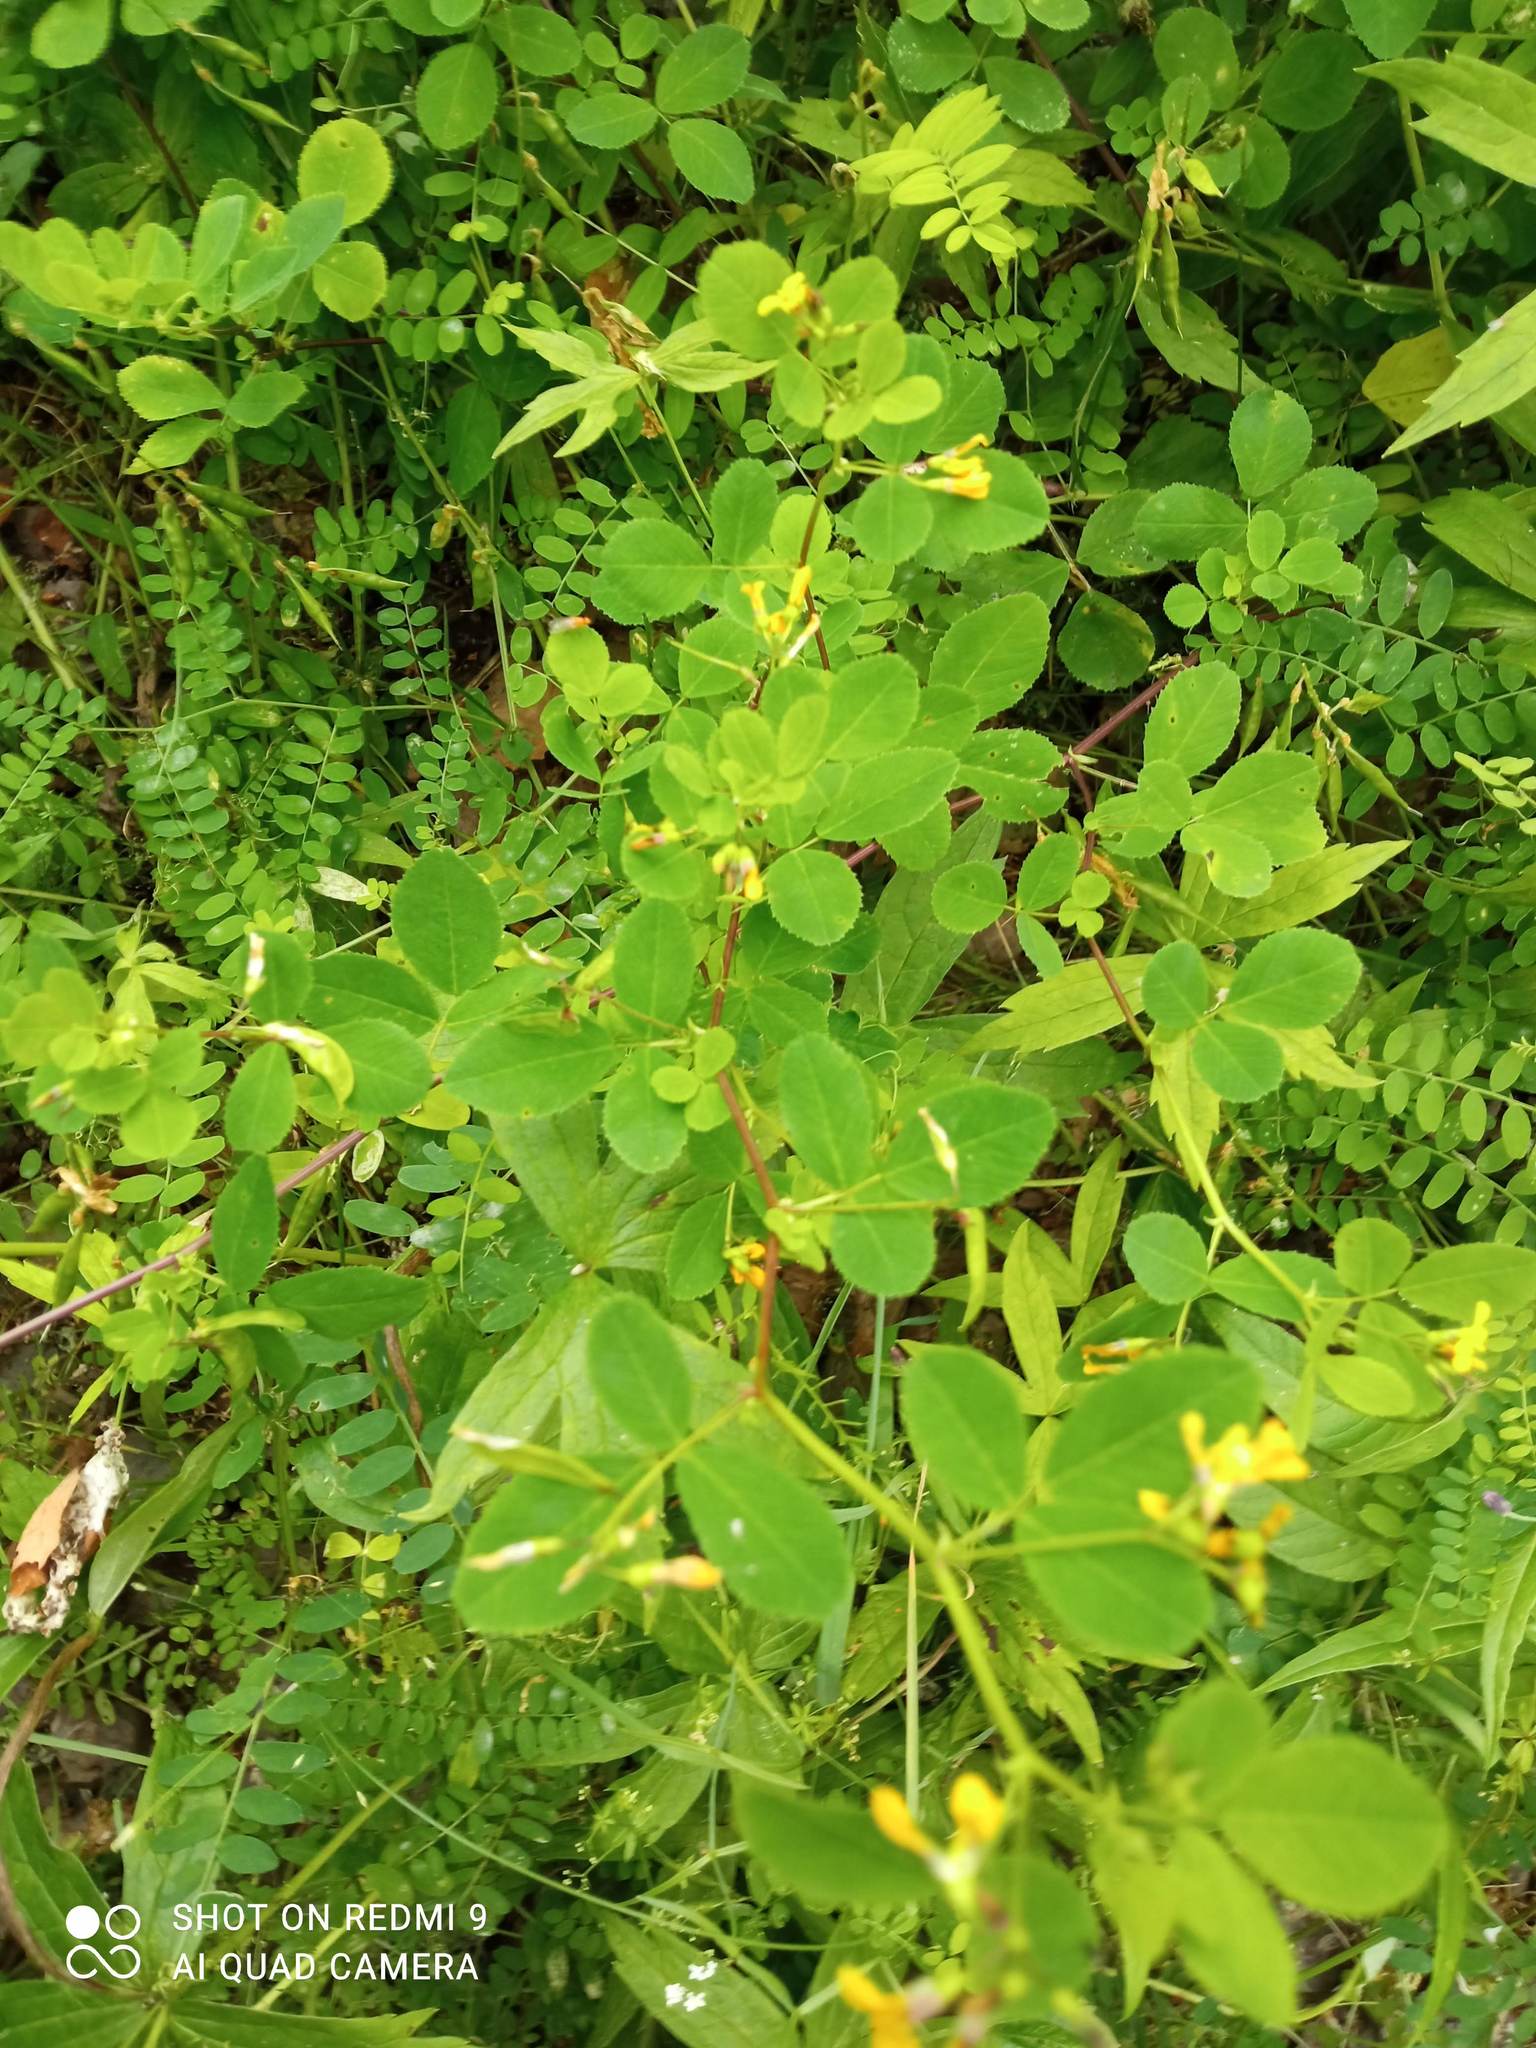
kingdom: Plantae
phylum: Tracheophyta
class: Magnoliopsida
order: Fabales
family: Fabaceae
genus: Medicago
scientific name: Medicago platycarpos
